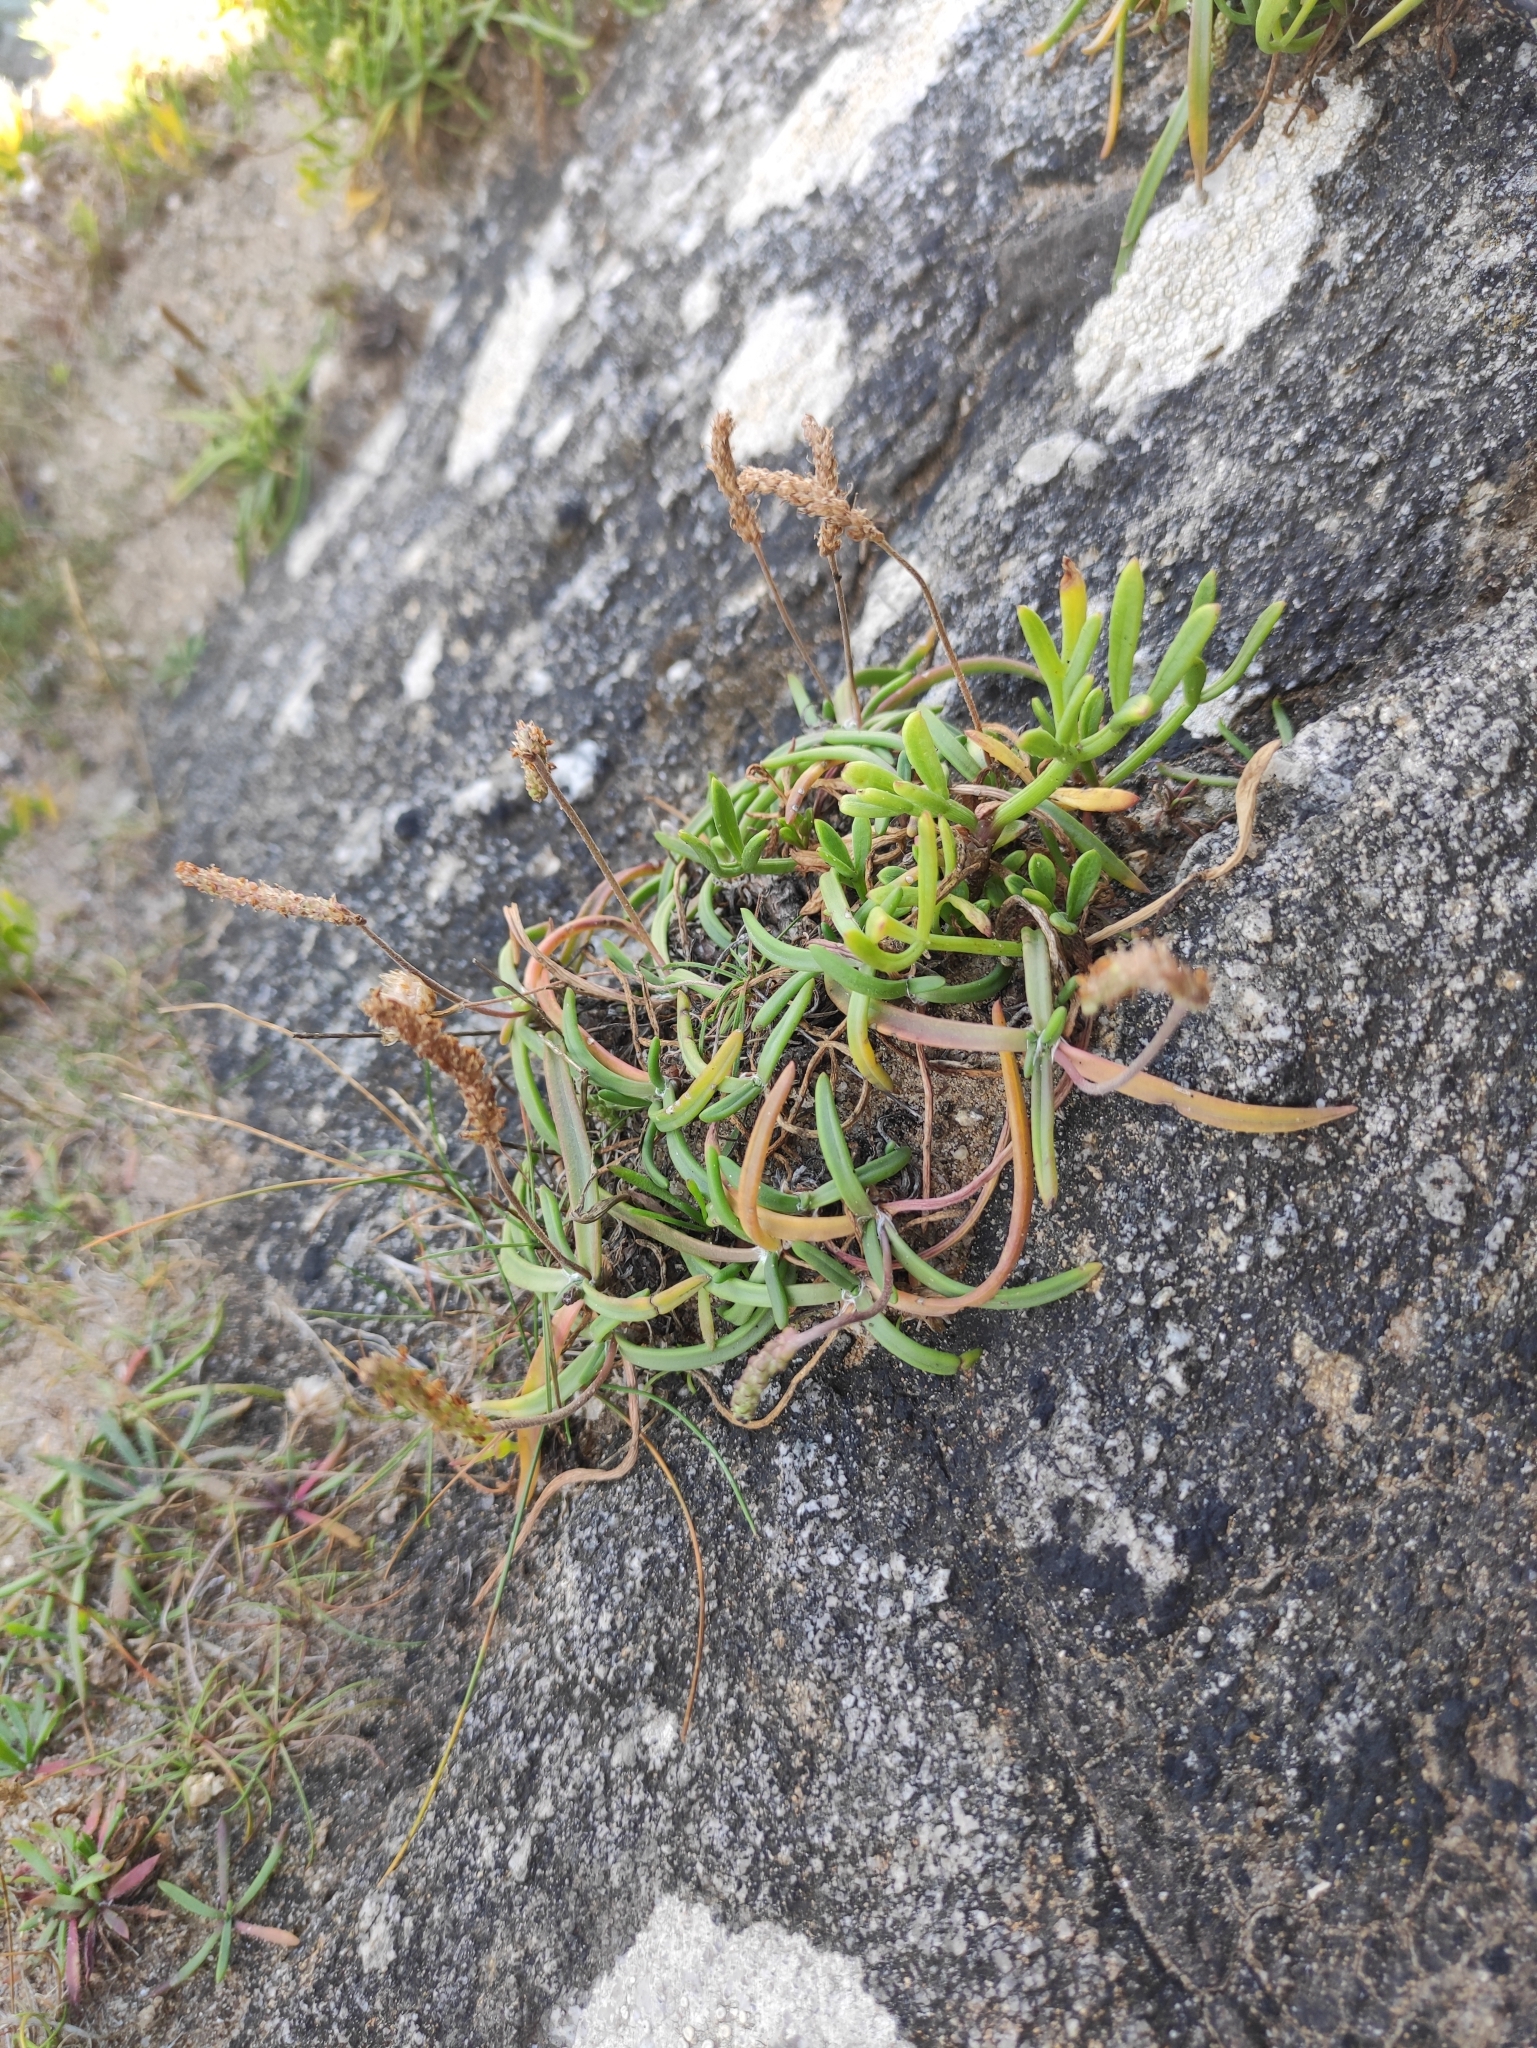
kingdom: Plantae
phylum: Tracheophyta
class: Magnoliopsida
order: Lamiales
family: Plantaginaceae
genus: Plantago
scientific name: Plantago coronopus
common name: Buck's-horn plantain
